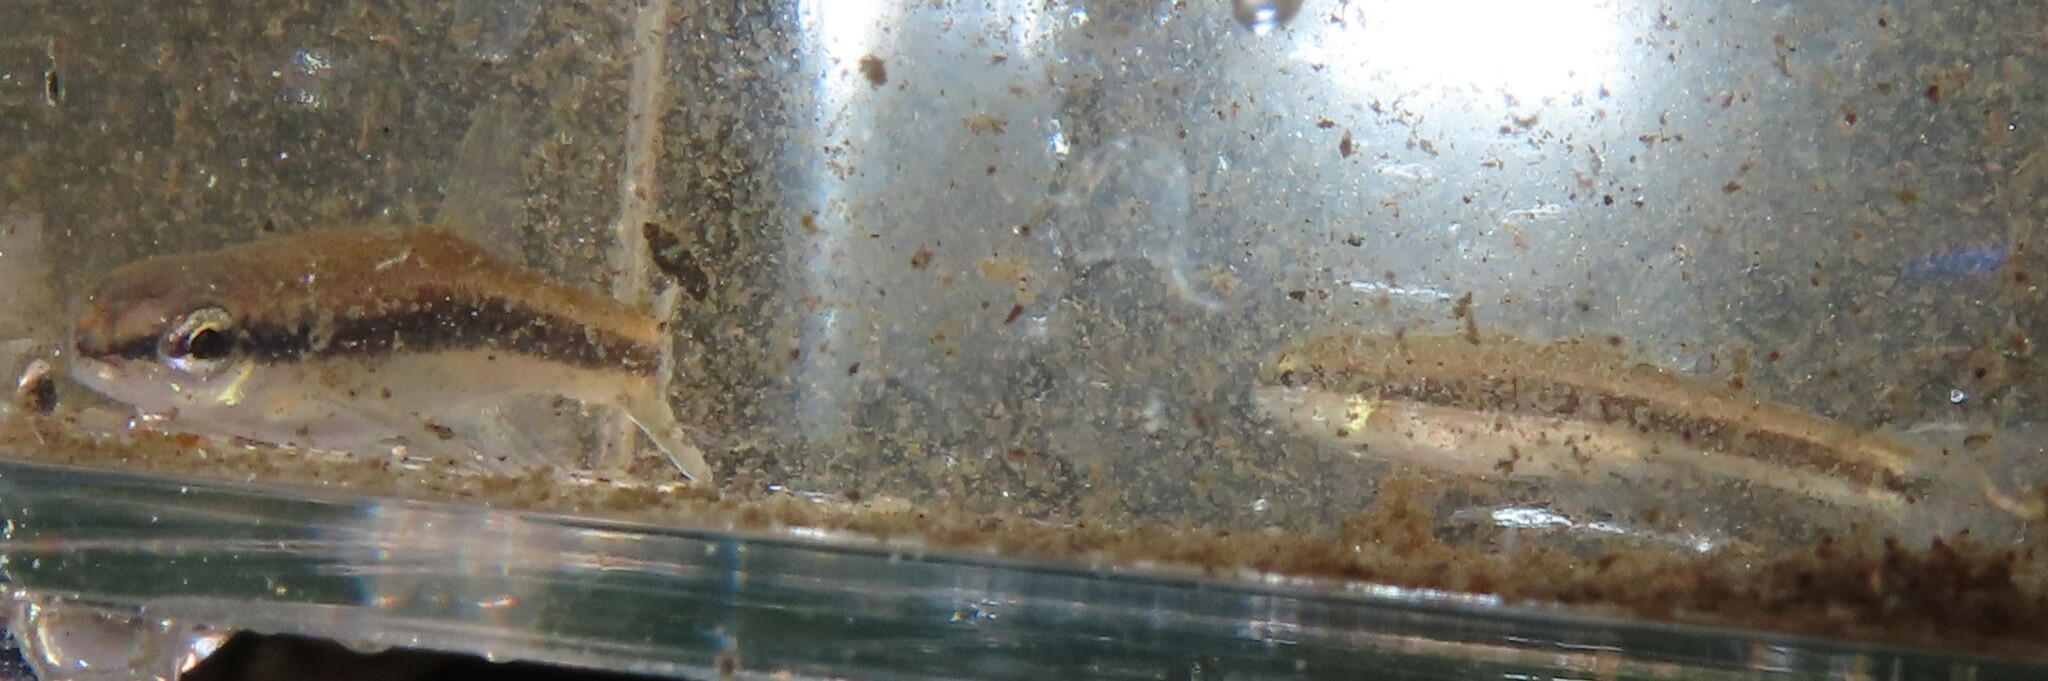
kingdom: Animalia
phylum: Chordata
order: Cypriniformes
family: Cyprinidae
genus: Rhinichthys
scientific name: Rhinichthys atratulus
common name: Eastern blacknose dace
